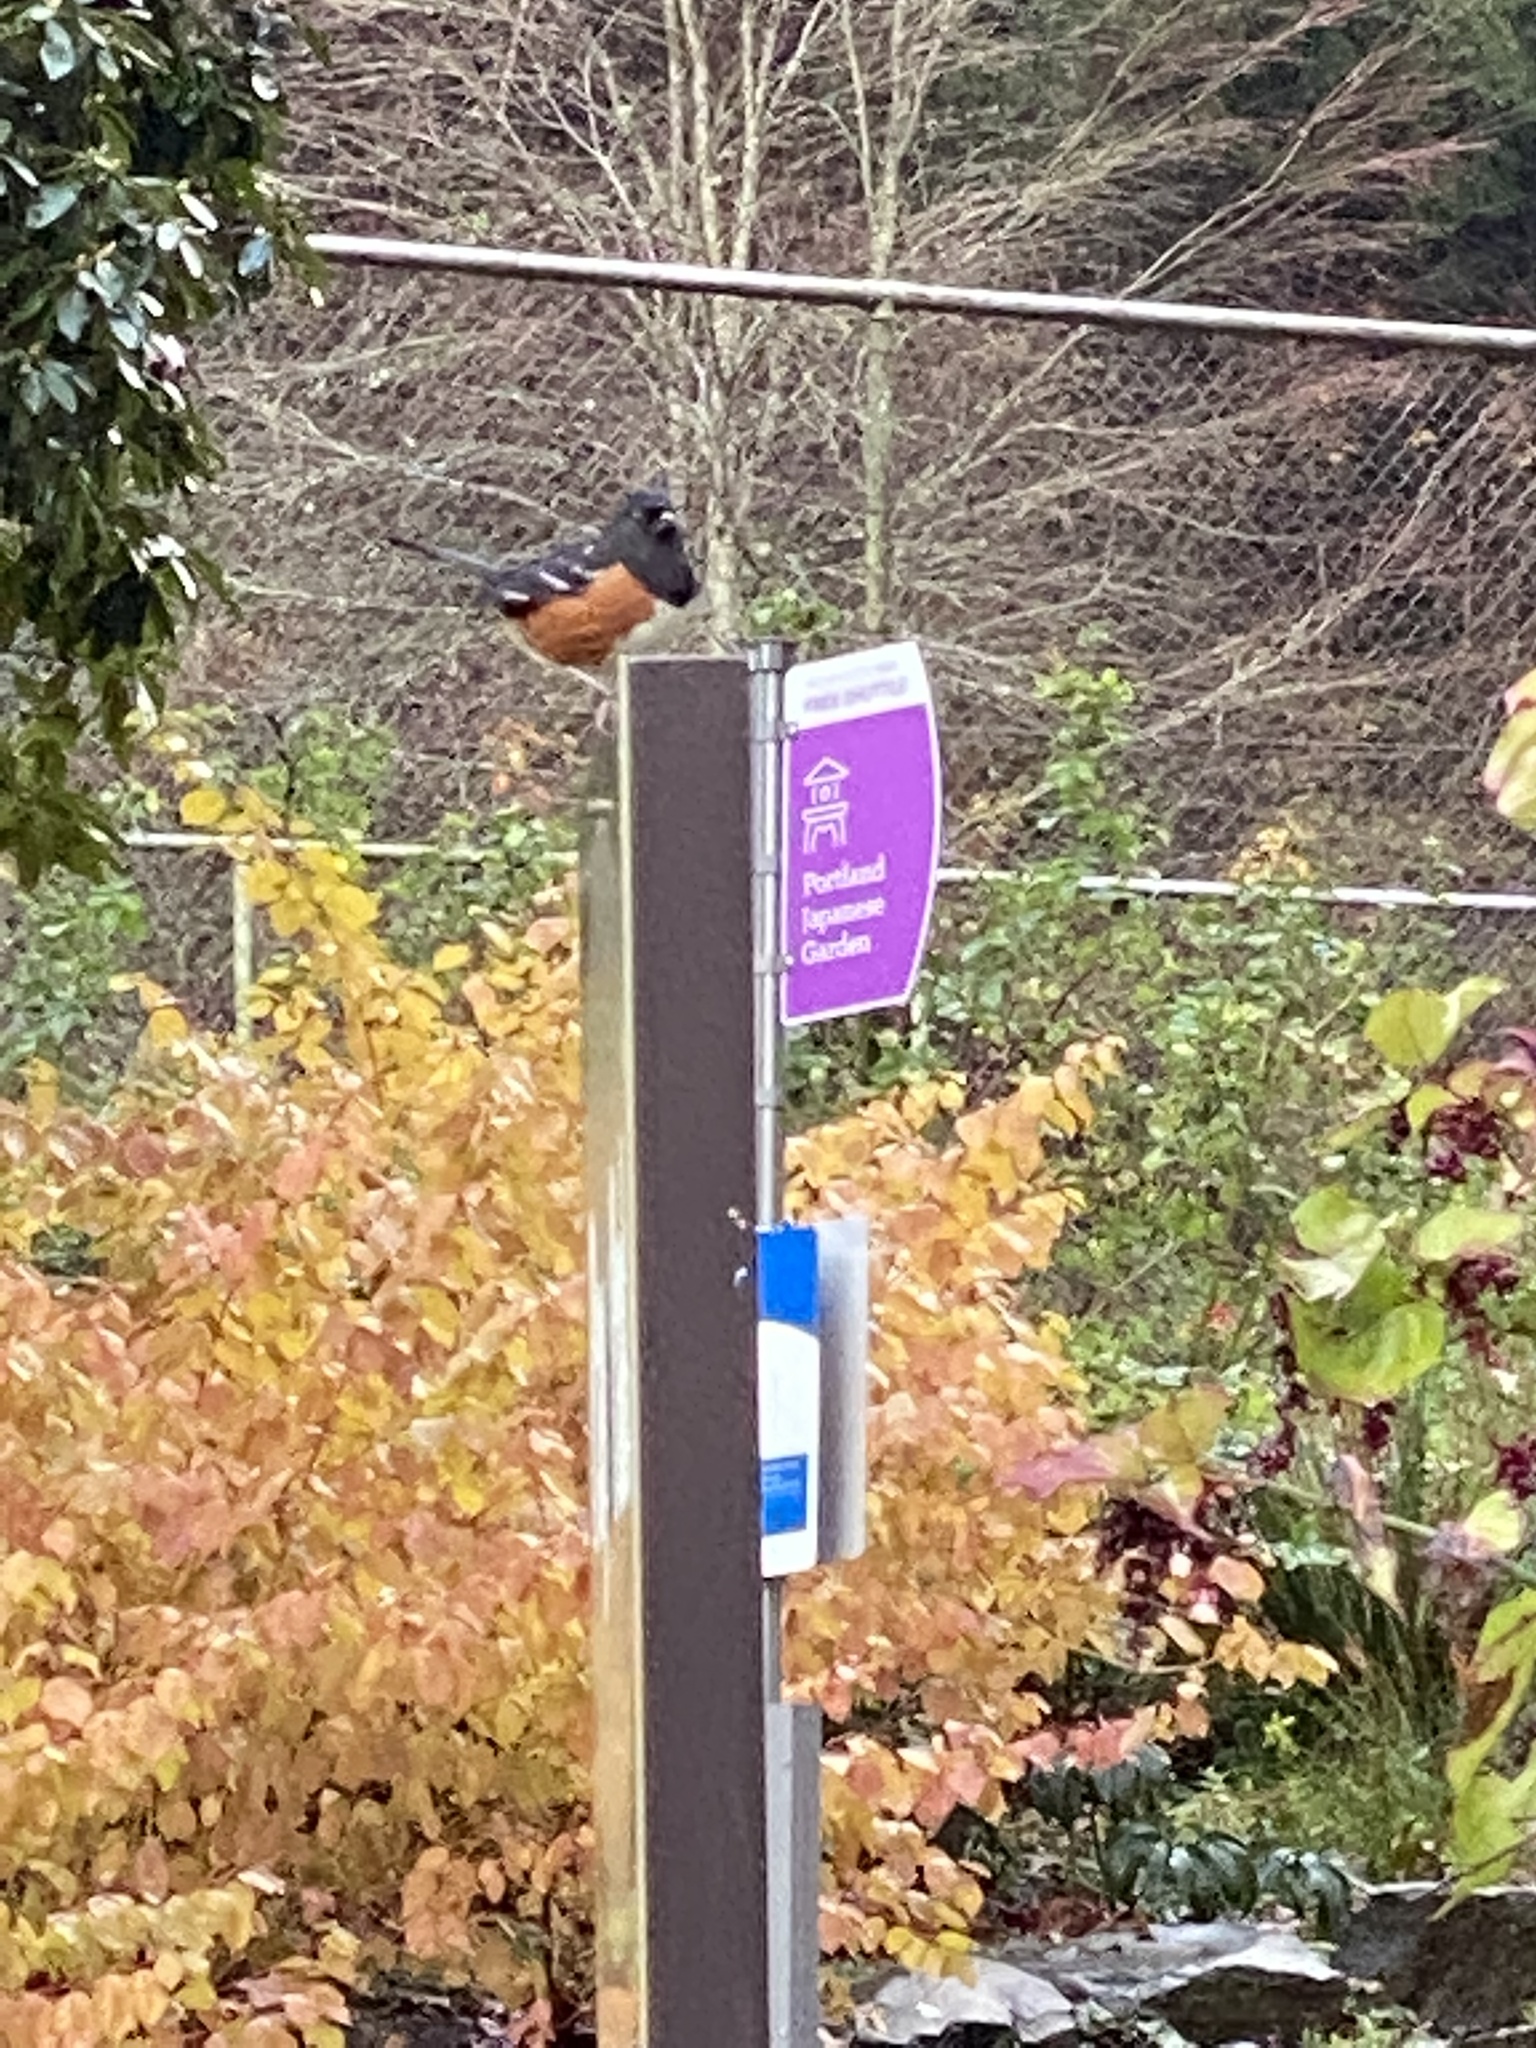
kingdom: Animalia
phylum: Chordata
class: Aves
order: Passeriformes
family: Passerellidae
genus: Pipilo
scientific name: Pipilo maculatus
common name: Spotted towhee
